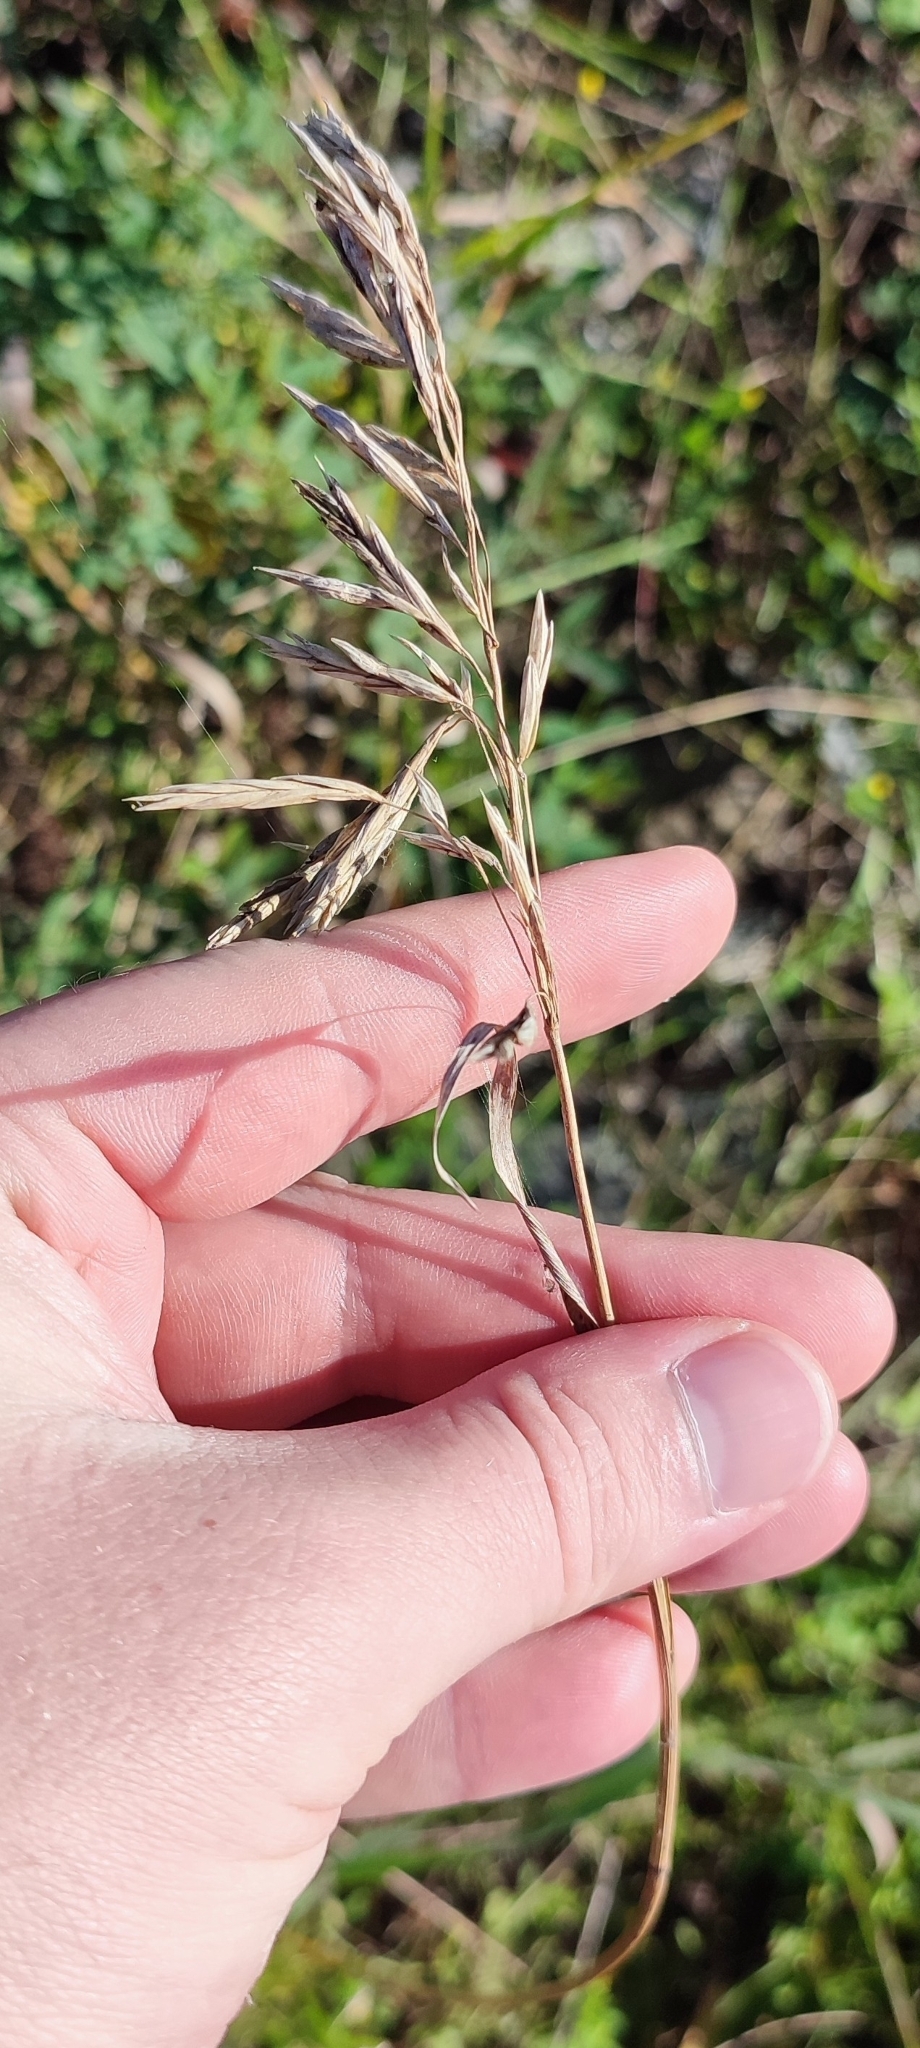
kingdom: Plantae
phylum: Tracheophyta
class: Liliopsida
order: Poales
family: Poaceae
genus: Bromus
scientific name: Bromus inermis
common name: Smooth brome
